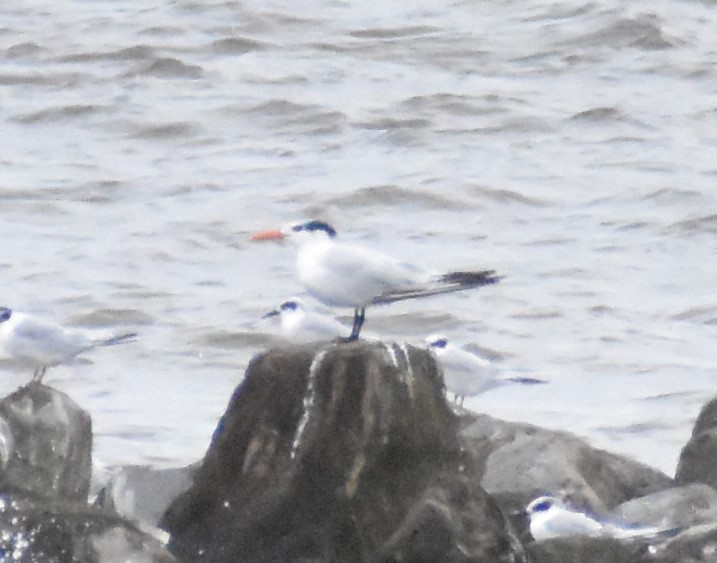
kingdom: Animalia
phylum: Chordata
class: Aves
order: Charadriiformes
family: Laridae
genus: Thalasseus
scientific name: Thalasseus maximus
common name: Royal tern
